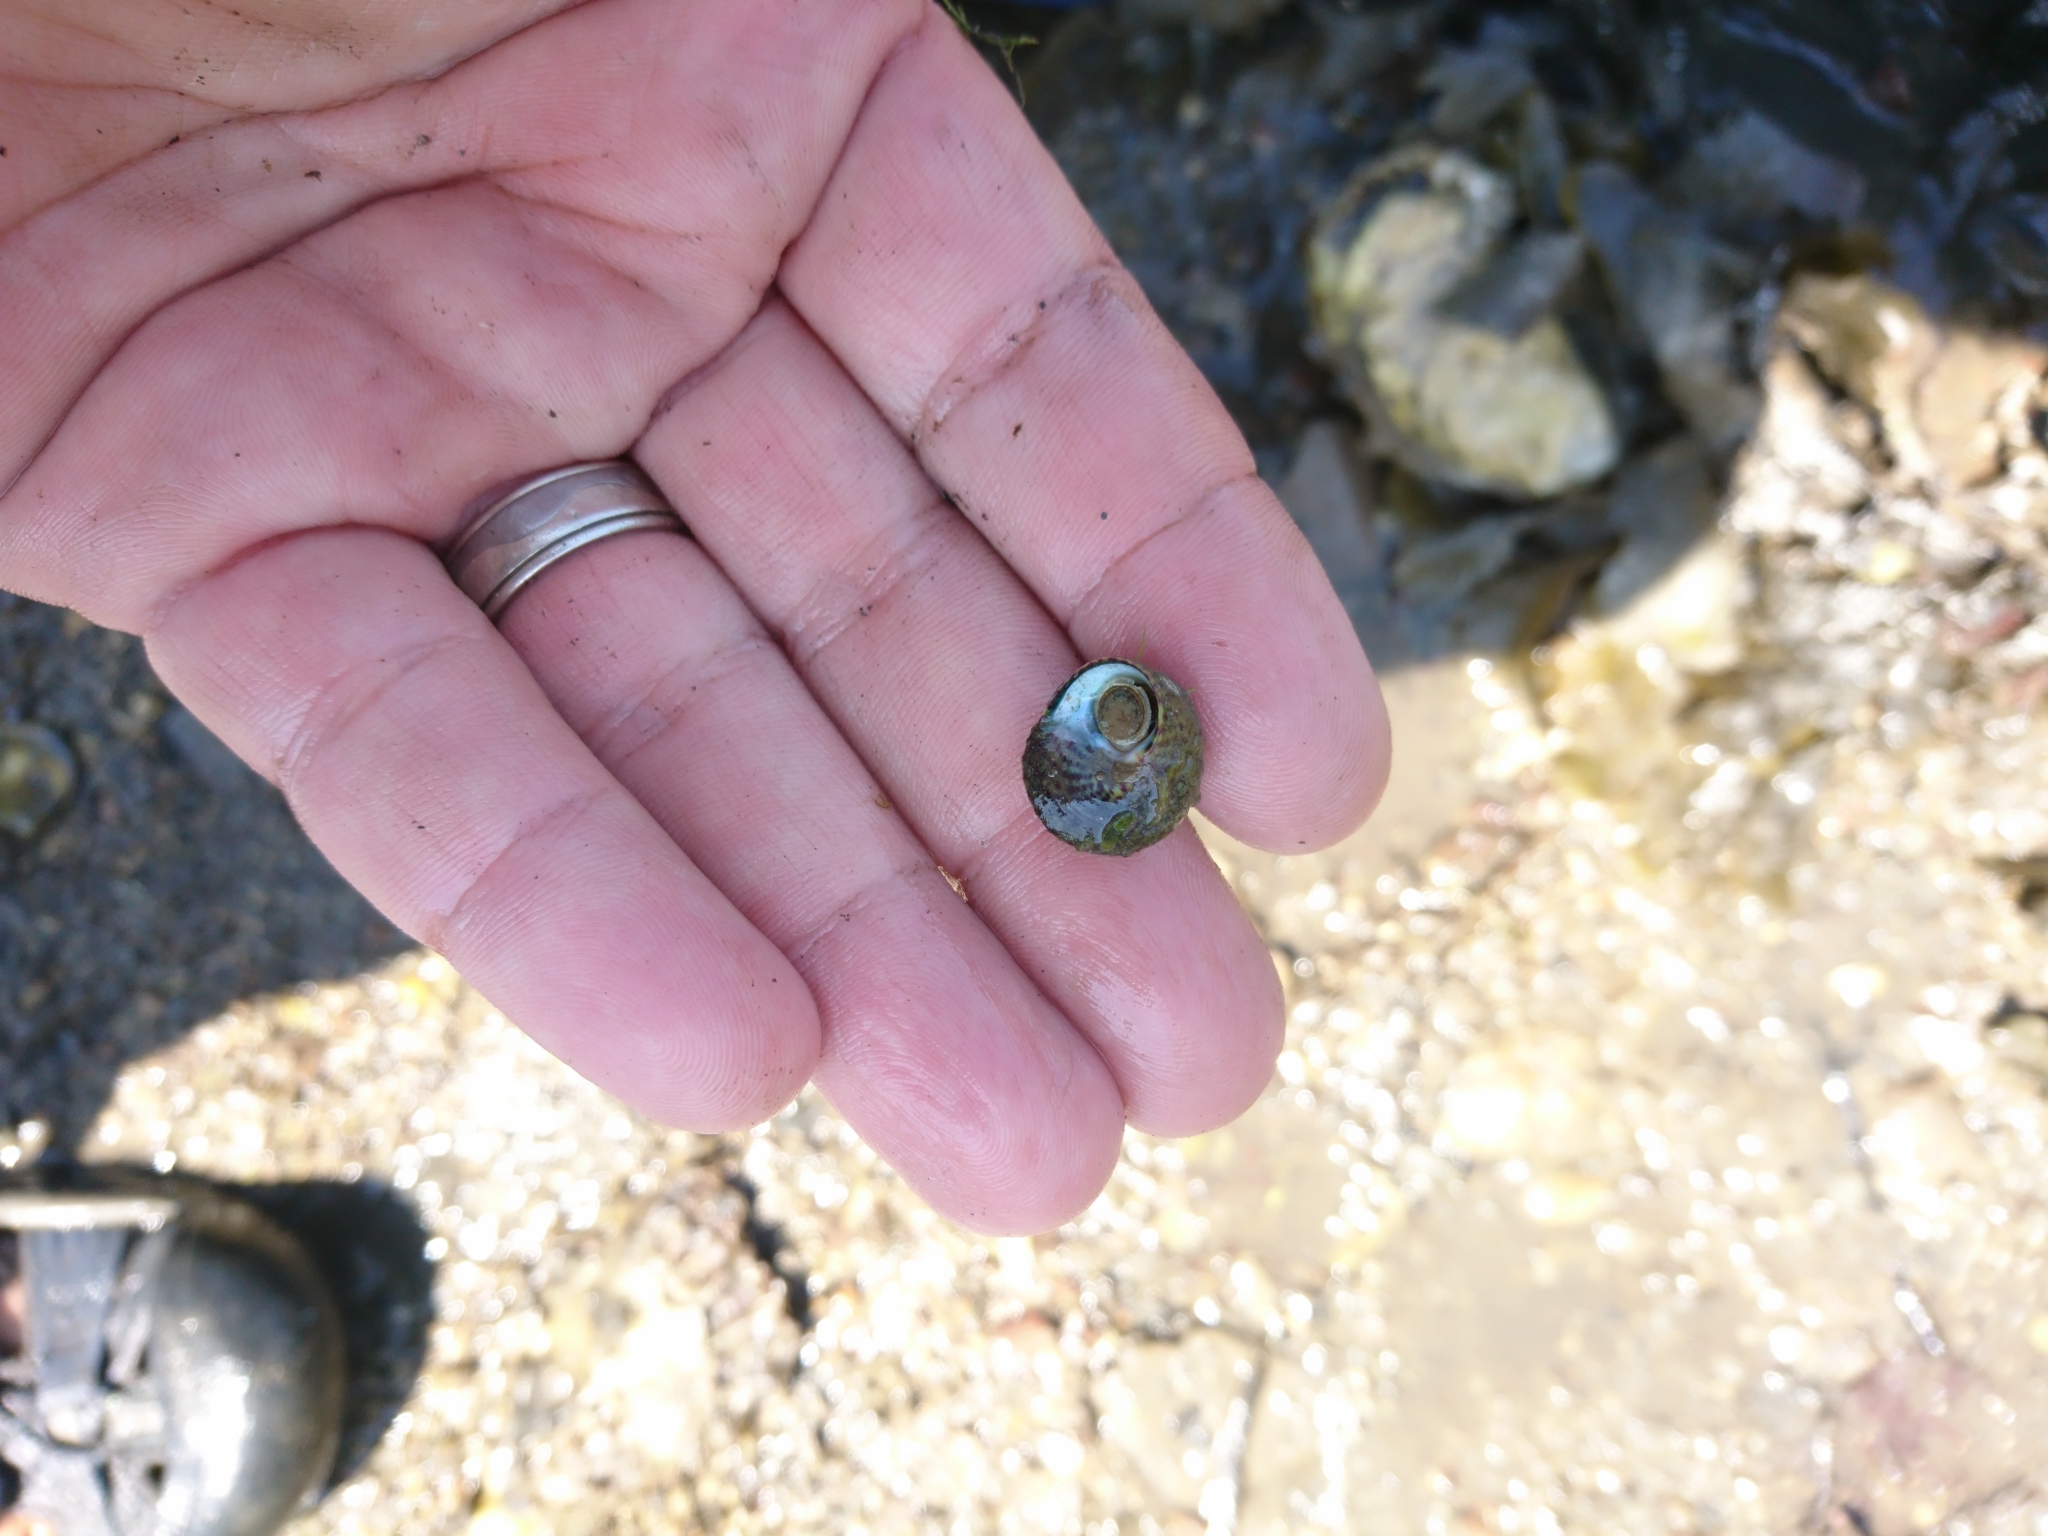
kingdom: Animalia
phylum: Mollusca
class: Gastropoda
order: Trochida
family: Trochidae
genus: Steromphala
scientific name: Steromphala umbilicalis
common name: Flat top shell
